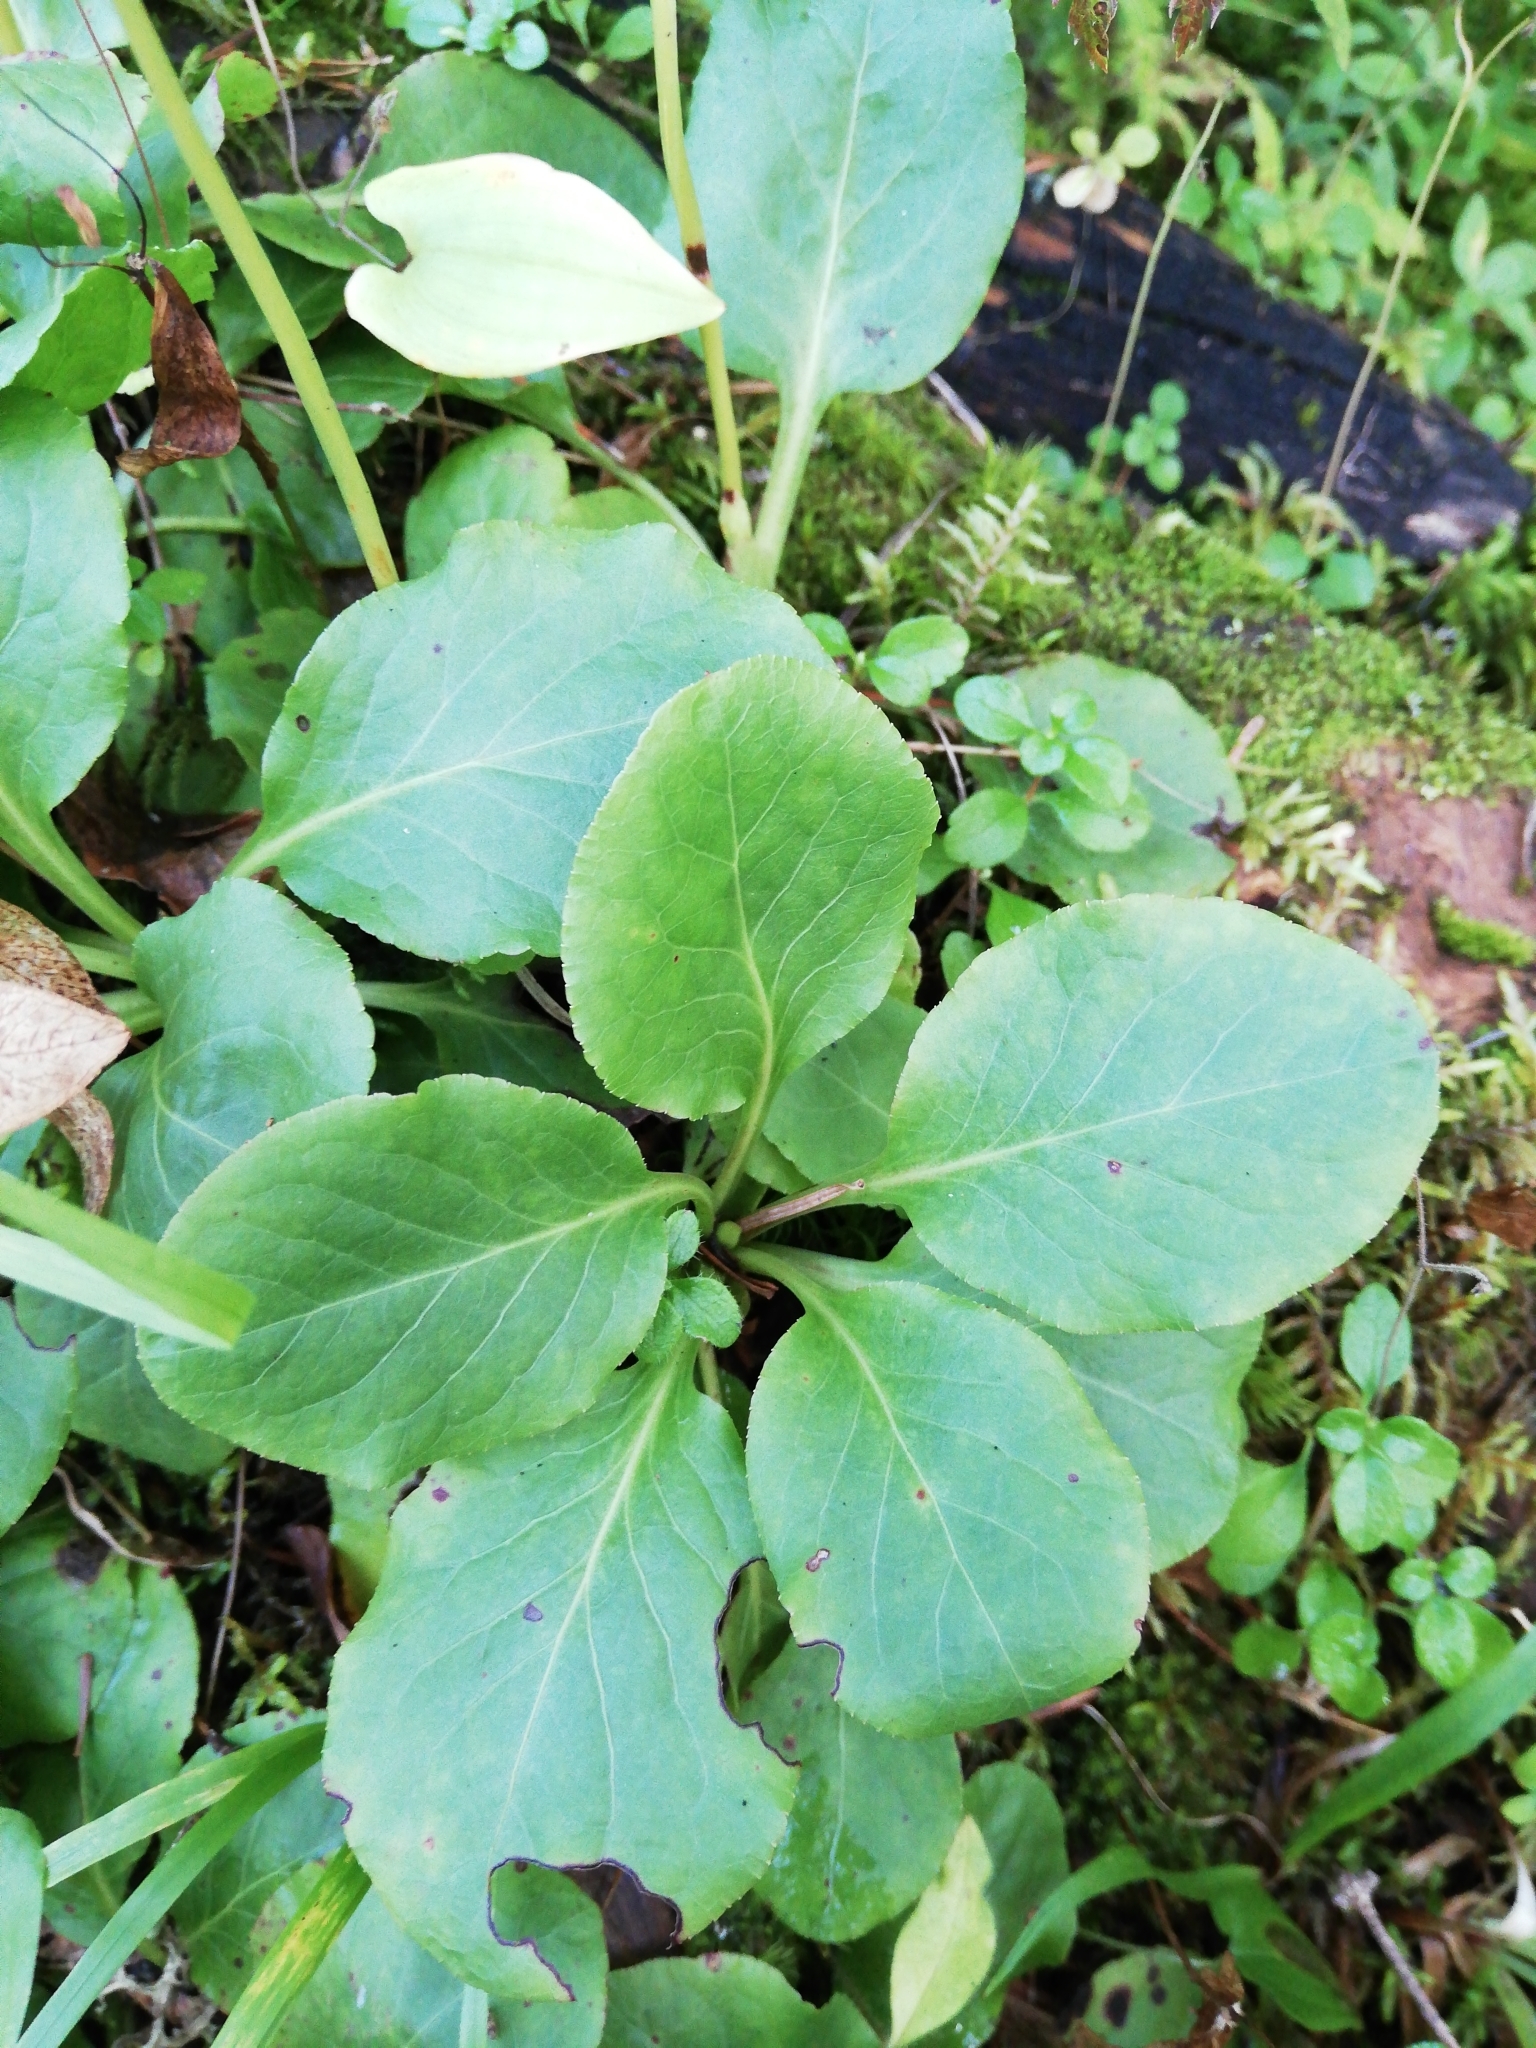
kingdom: Plantae
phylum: Tracheophyta
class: Magnoliopsida
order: Ericales
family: Ericaceae
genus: Pyrola
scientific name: Pyrola minor
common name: Common wintergreen
